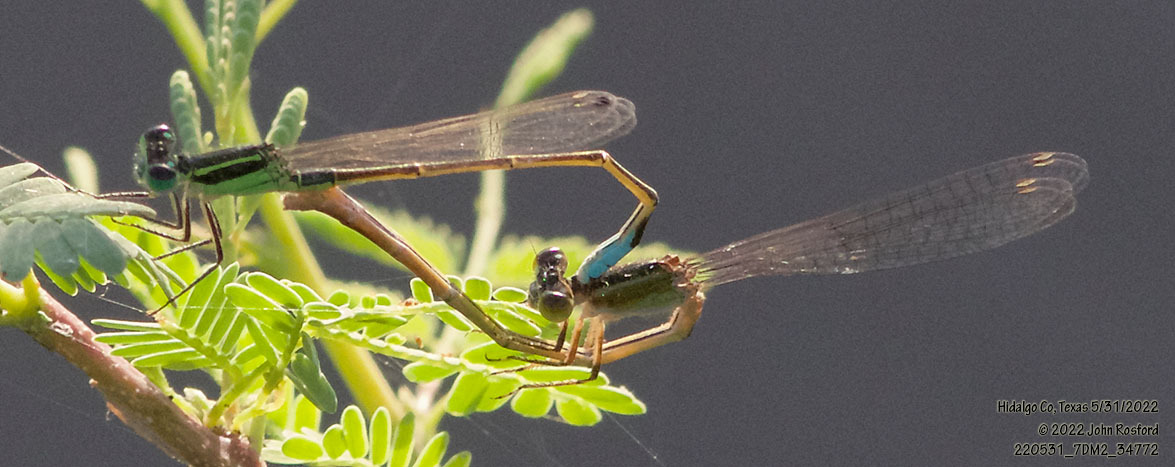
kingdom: Animalia
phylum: Arthropoda
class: Insecta
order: Odonata
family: Coenagrionidae
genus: Ischnura
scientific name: Ischnura ramburii
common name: Rambur's forktail
